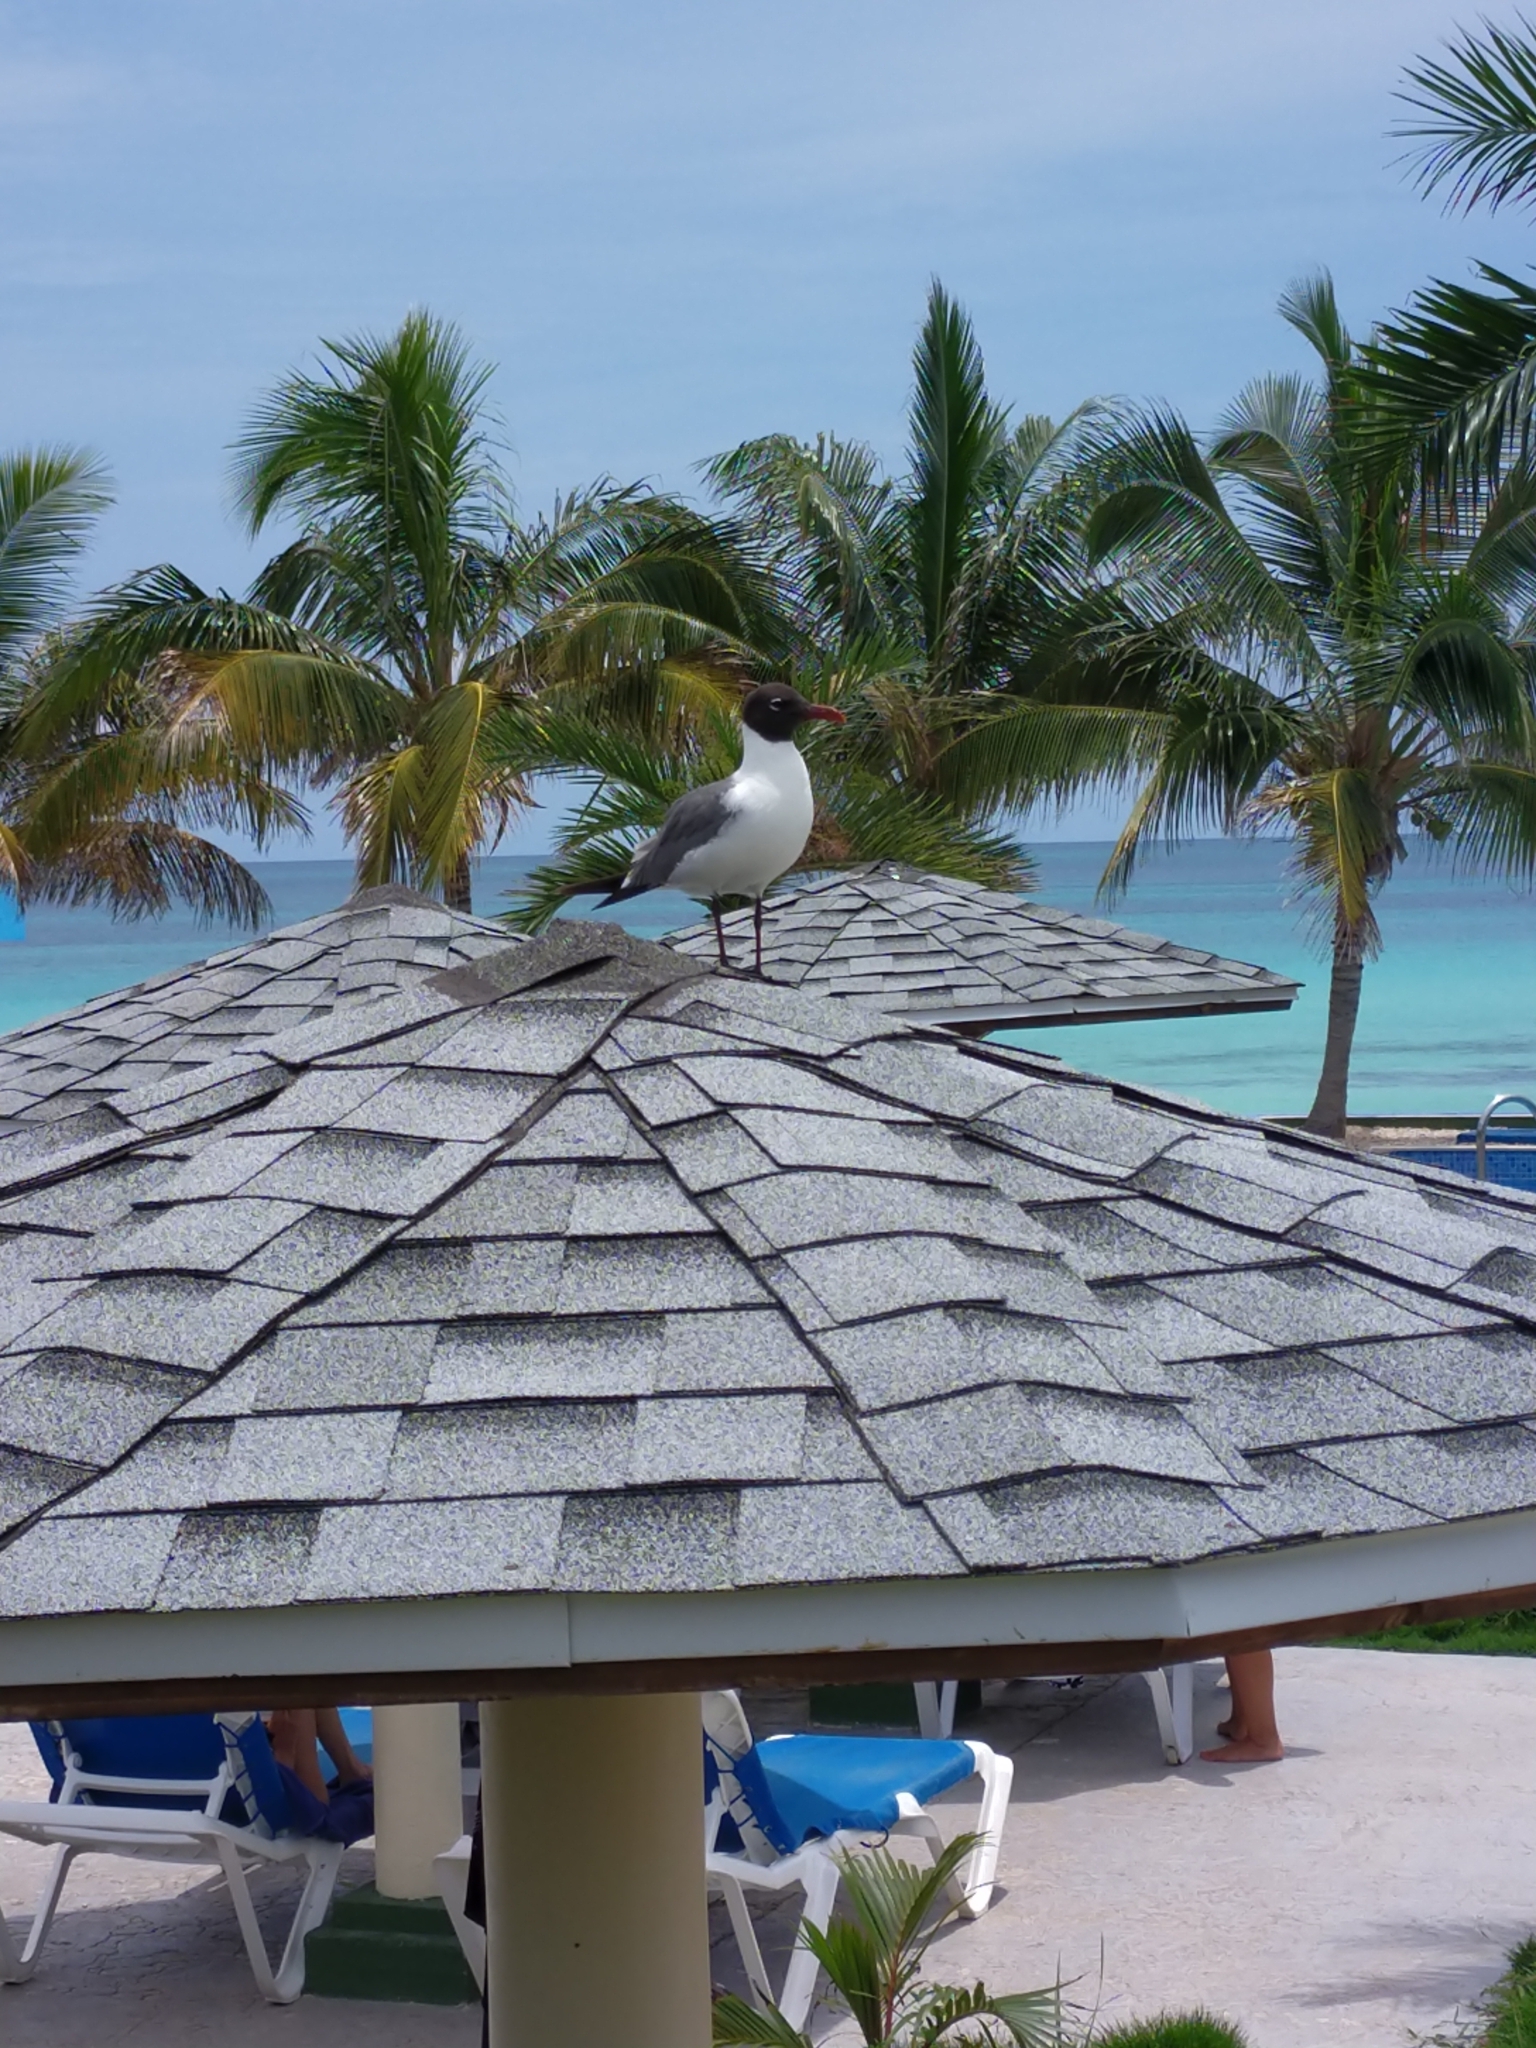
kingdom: Animalia
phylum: Chordata
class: Aves
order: Charadriiformes
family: Laridae
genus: Leucophaeus
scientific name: Leucophaeus atricilla
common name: Laughing gull
